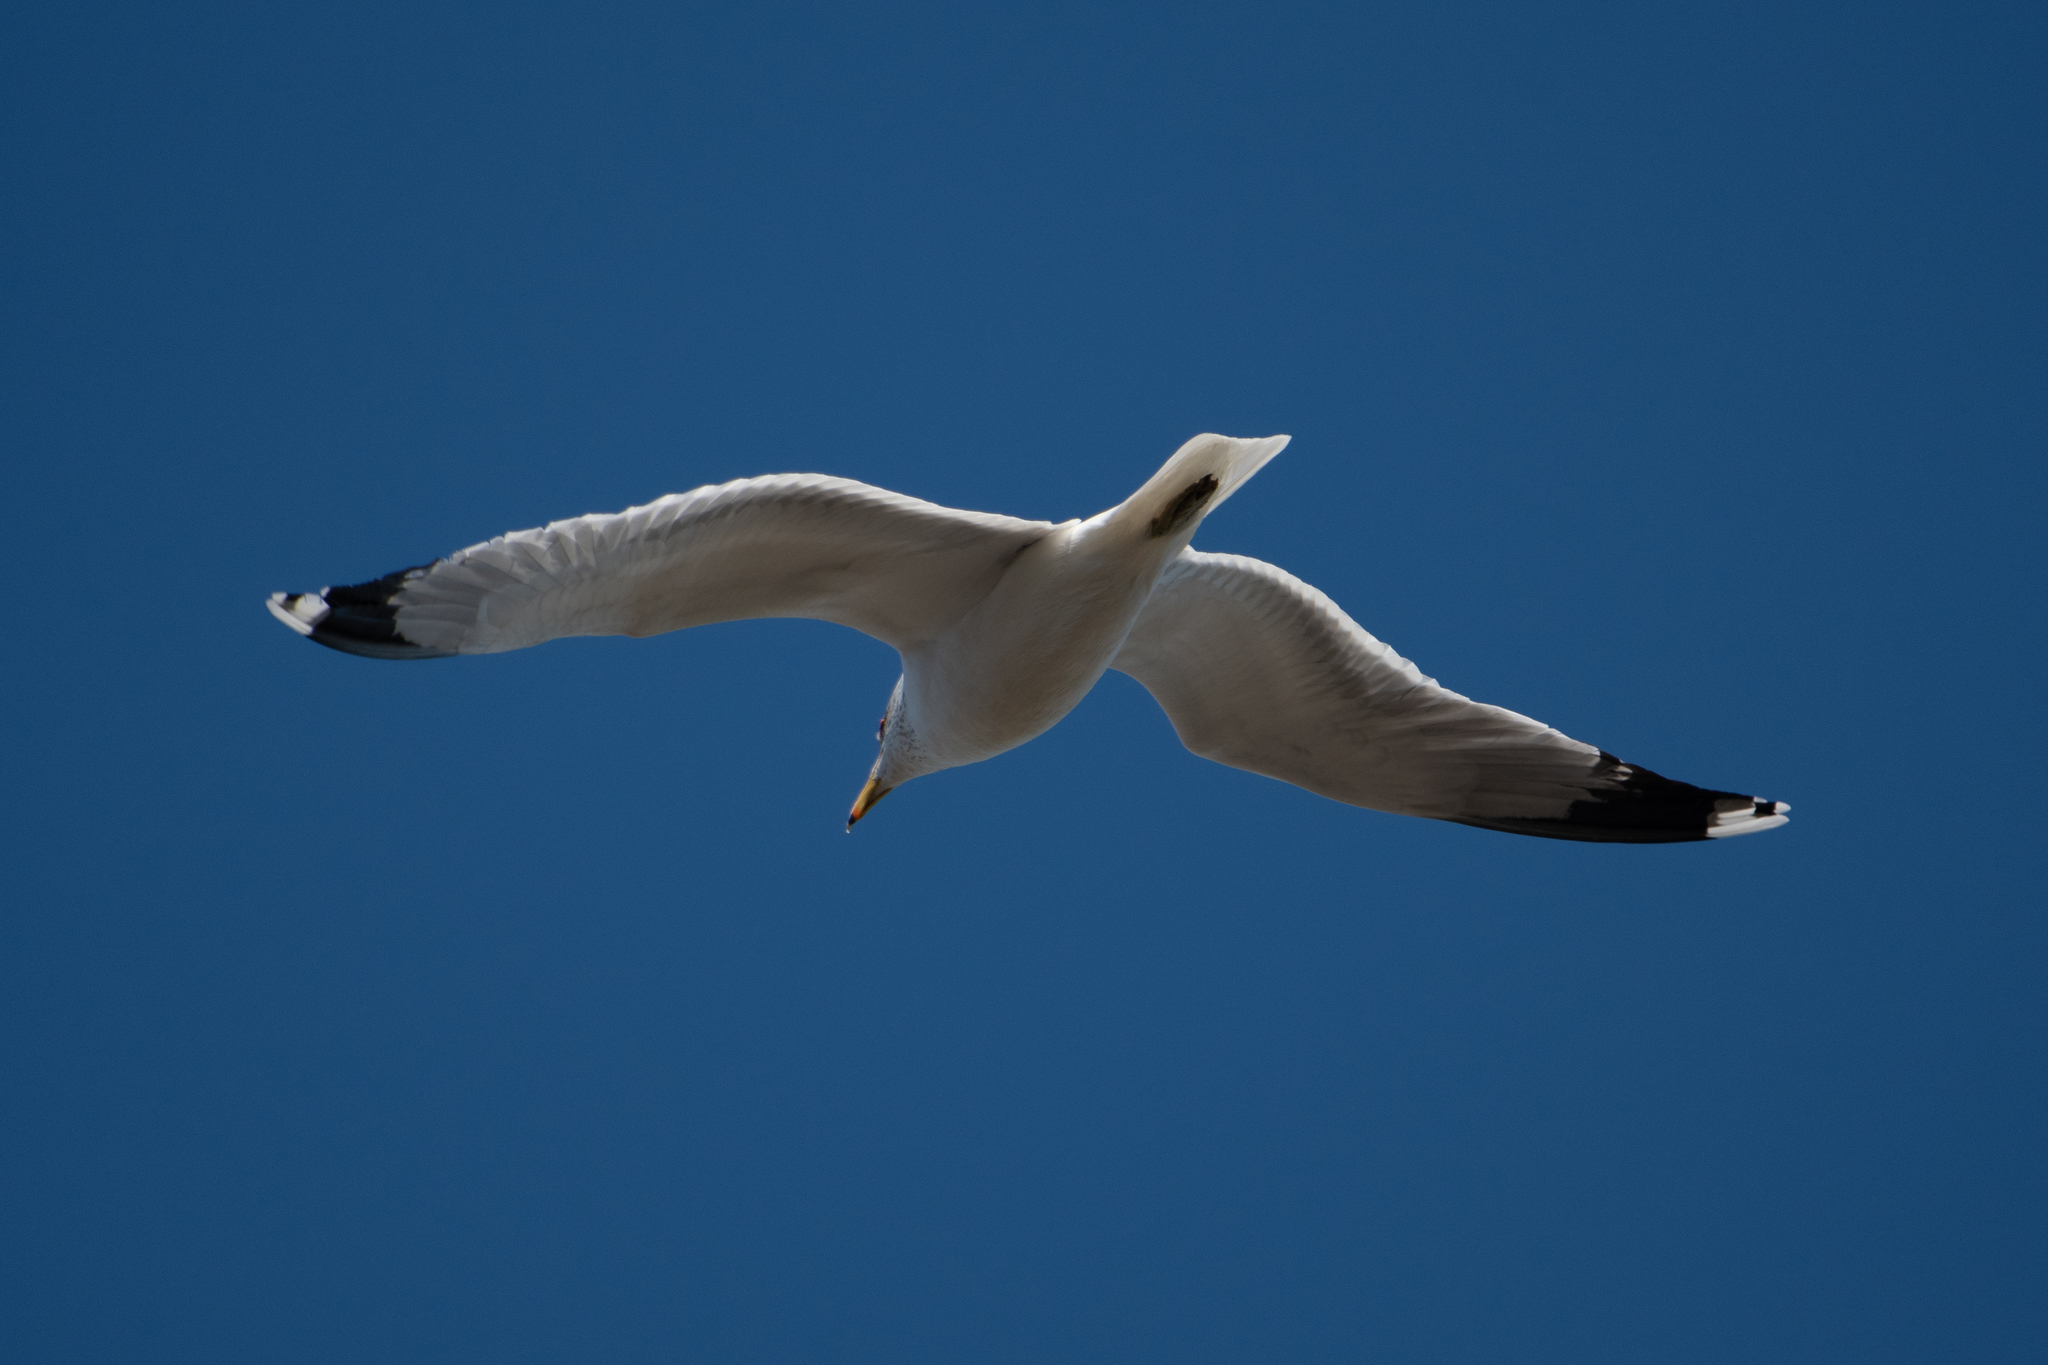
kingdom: Animalia
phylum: Chordata
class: Aves
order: Charadriiformes
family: Laridae
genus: Larus
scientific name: Larus californicus
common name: California gull
